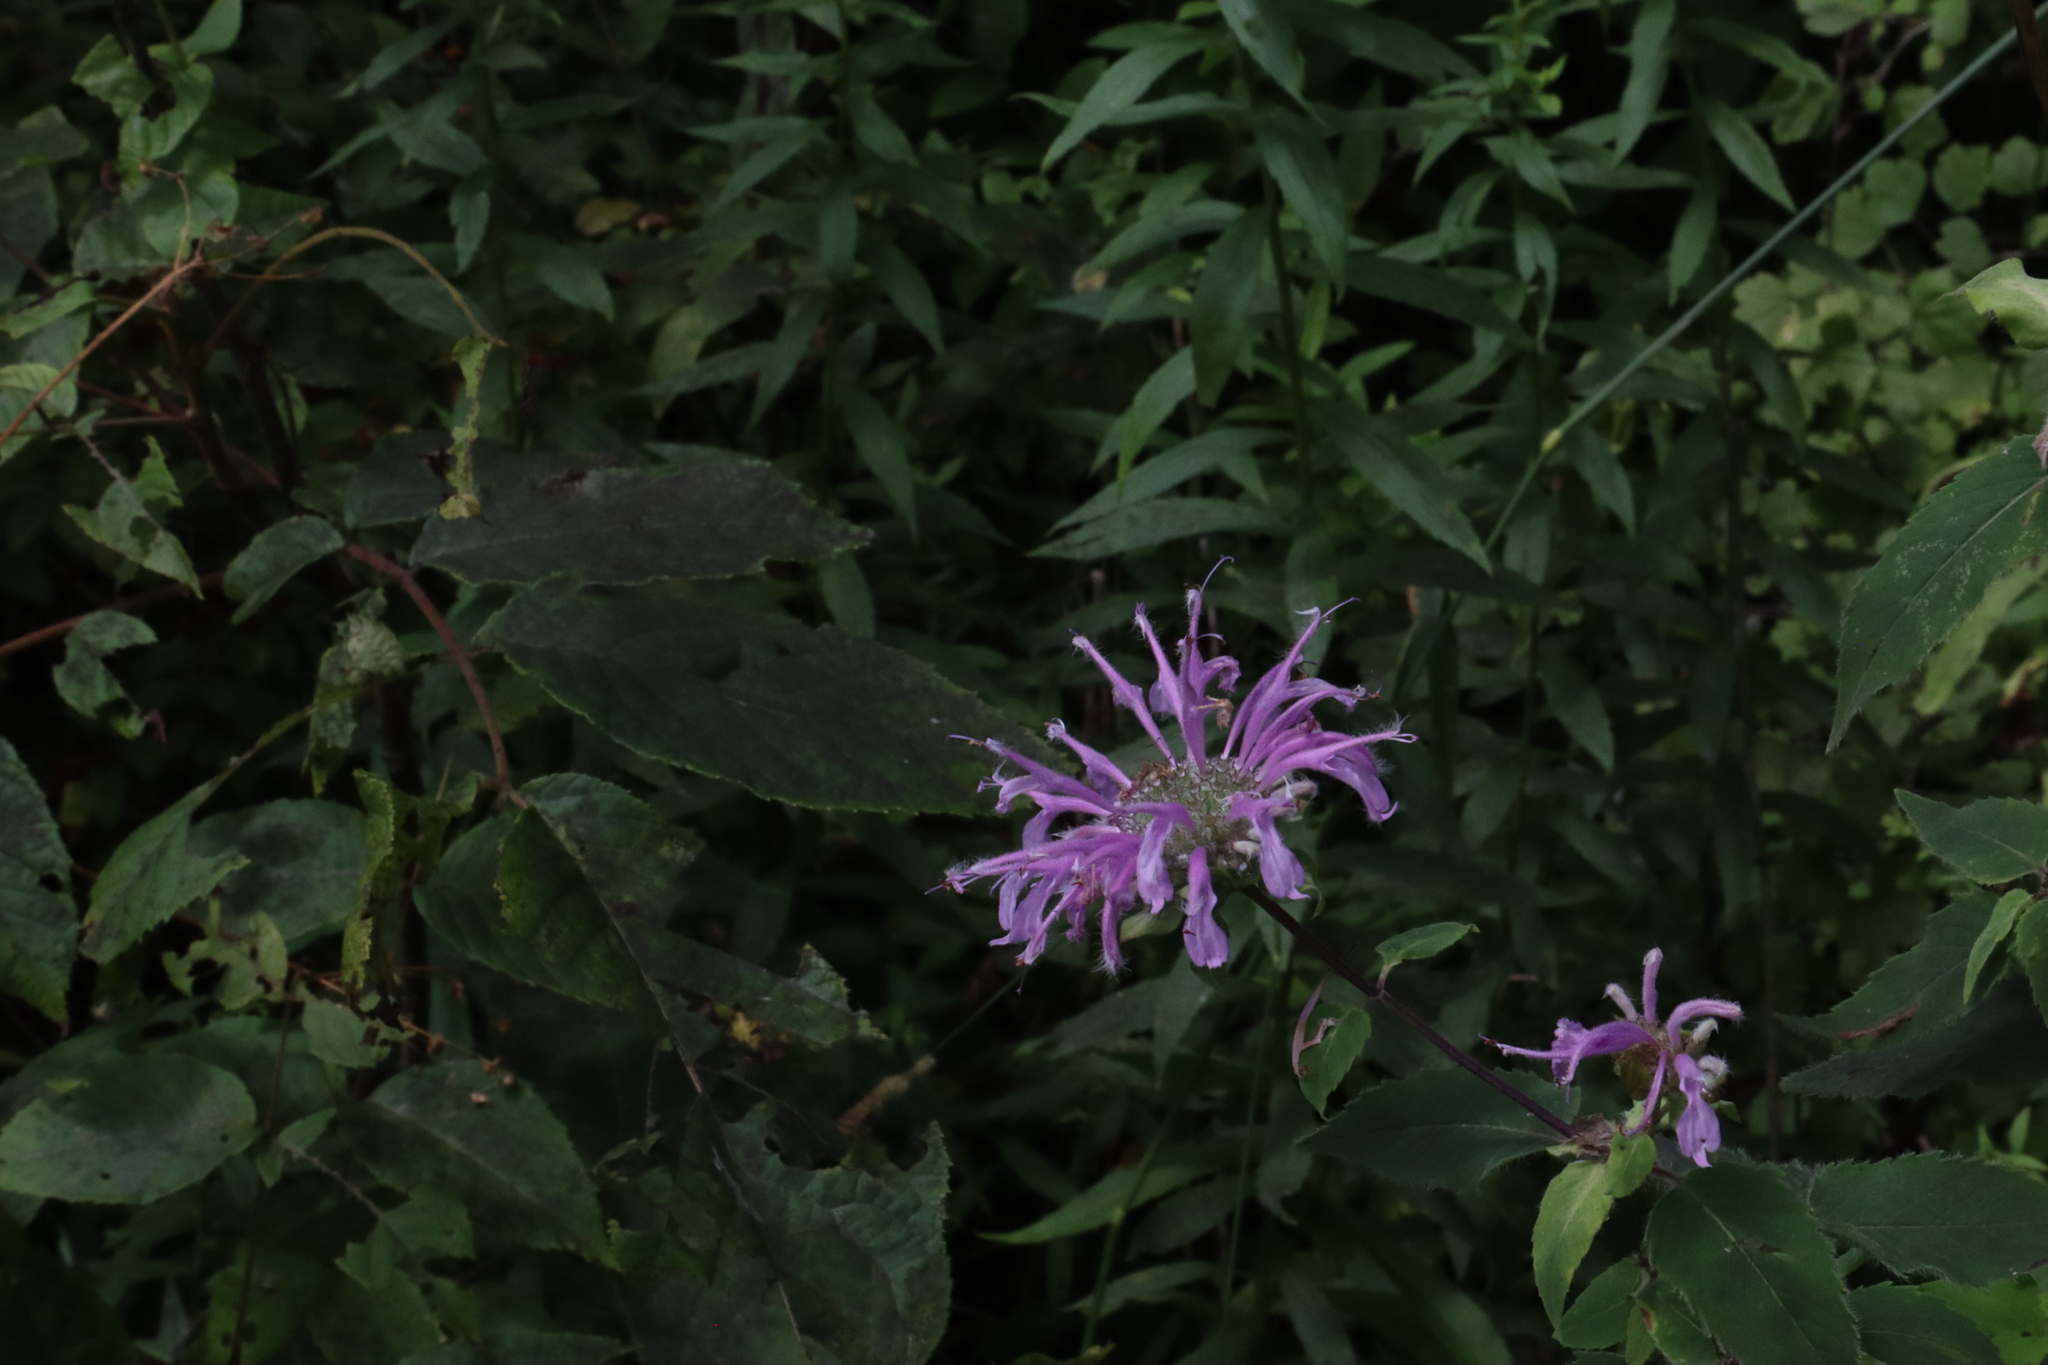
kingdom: Plantae
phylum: Tracheophyta
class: Magnoliopsida
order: Lamiales
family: Lamiaceae
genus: Monarda
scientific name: Monarda fistulosa
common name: Purple beebalm
